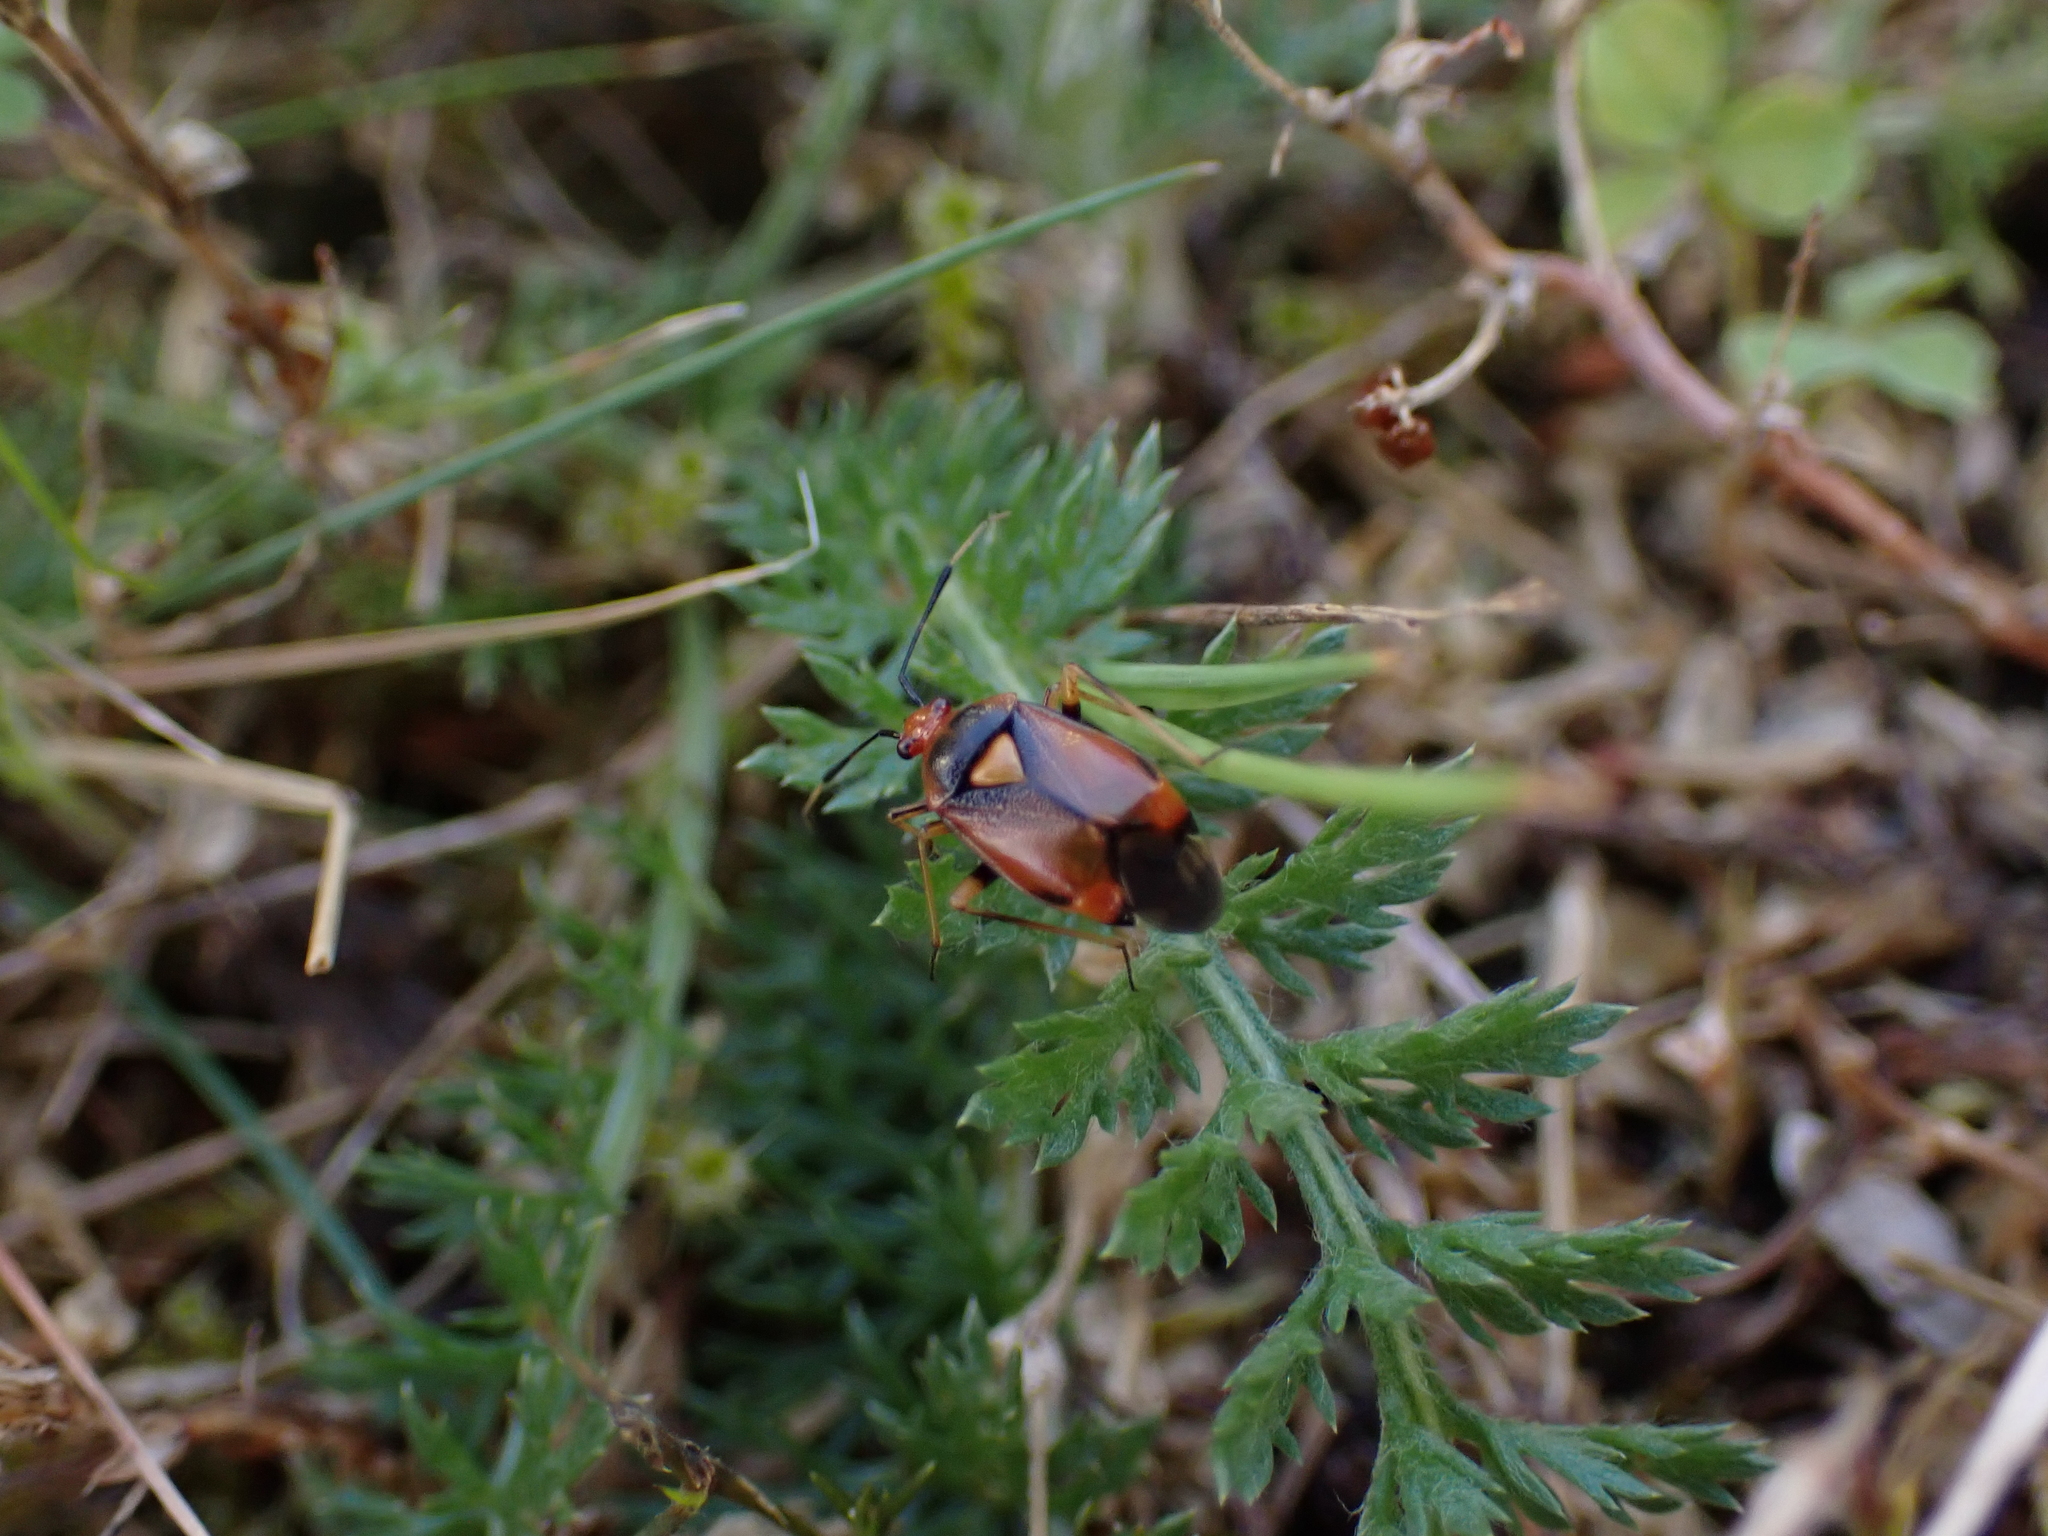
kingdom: Animalia
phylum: Arthropoda
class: Insecta
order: Hemiptera
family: Miridae
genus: Deraeocoris
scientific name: Deraeocoris ruber
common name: Plant bug
